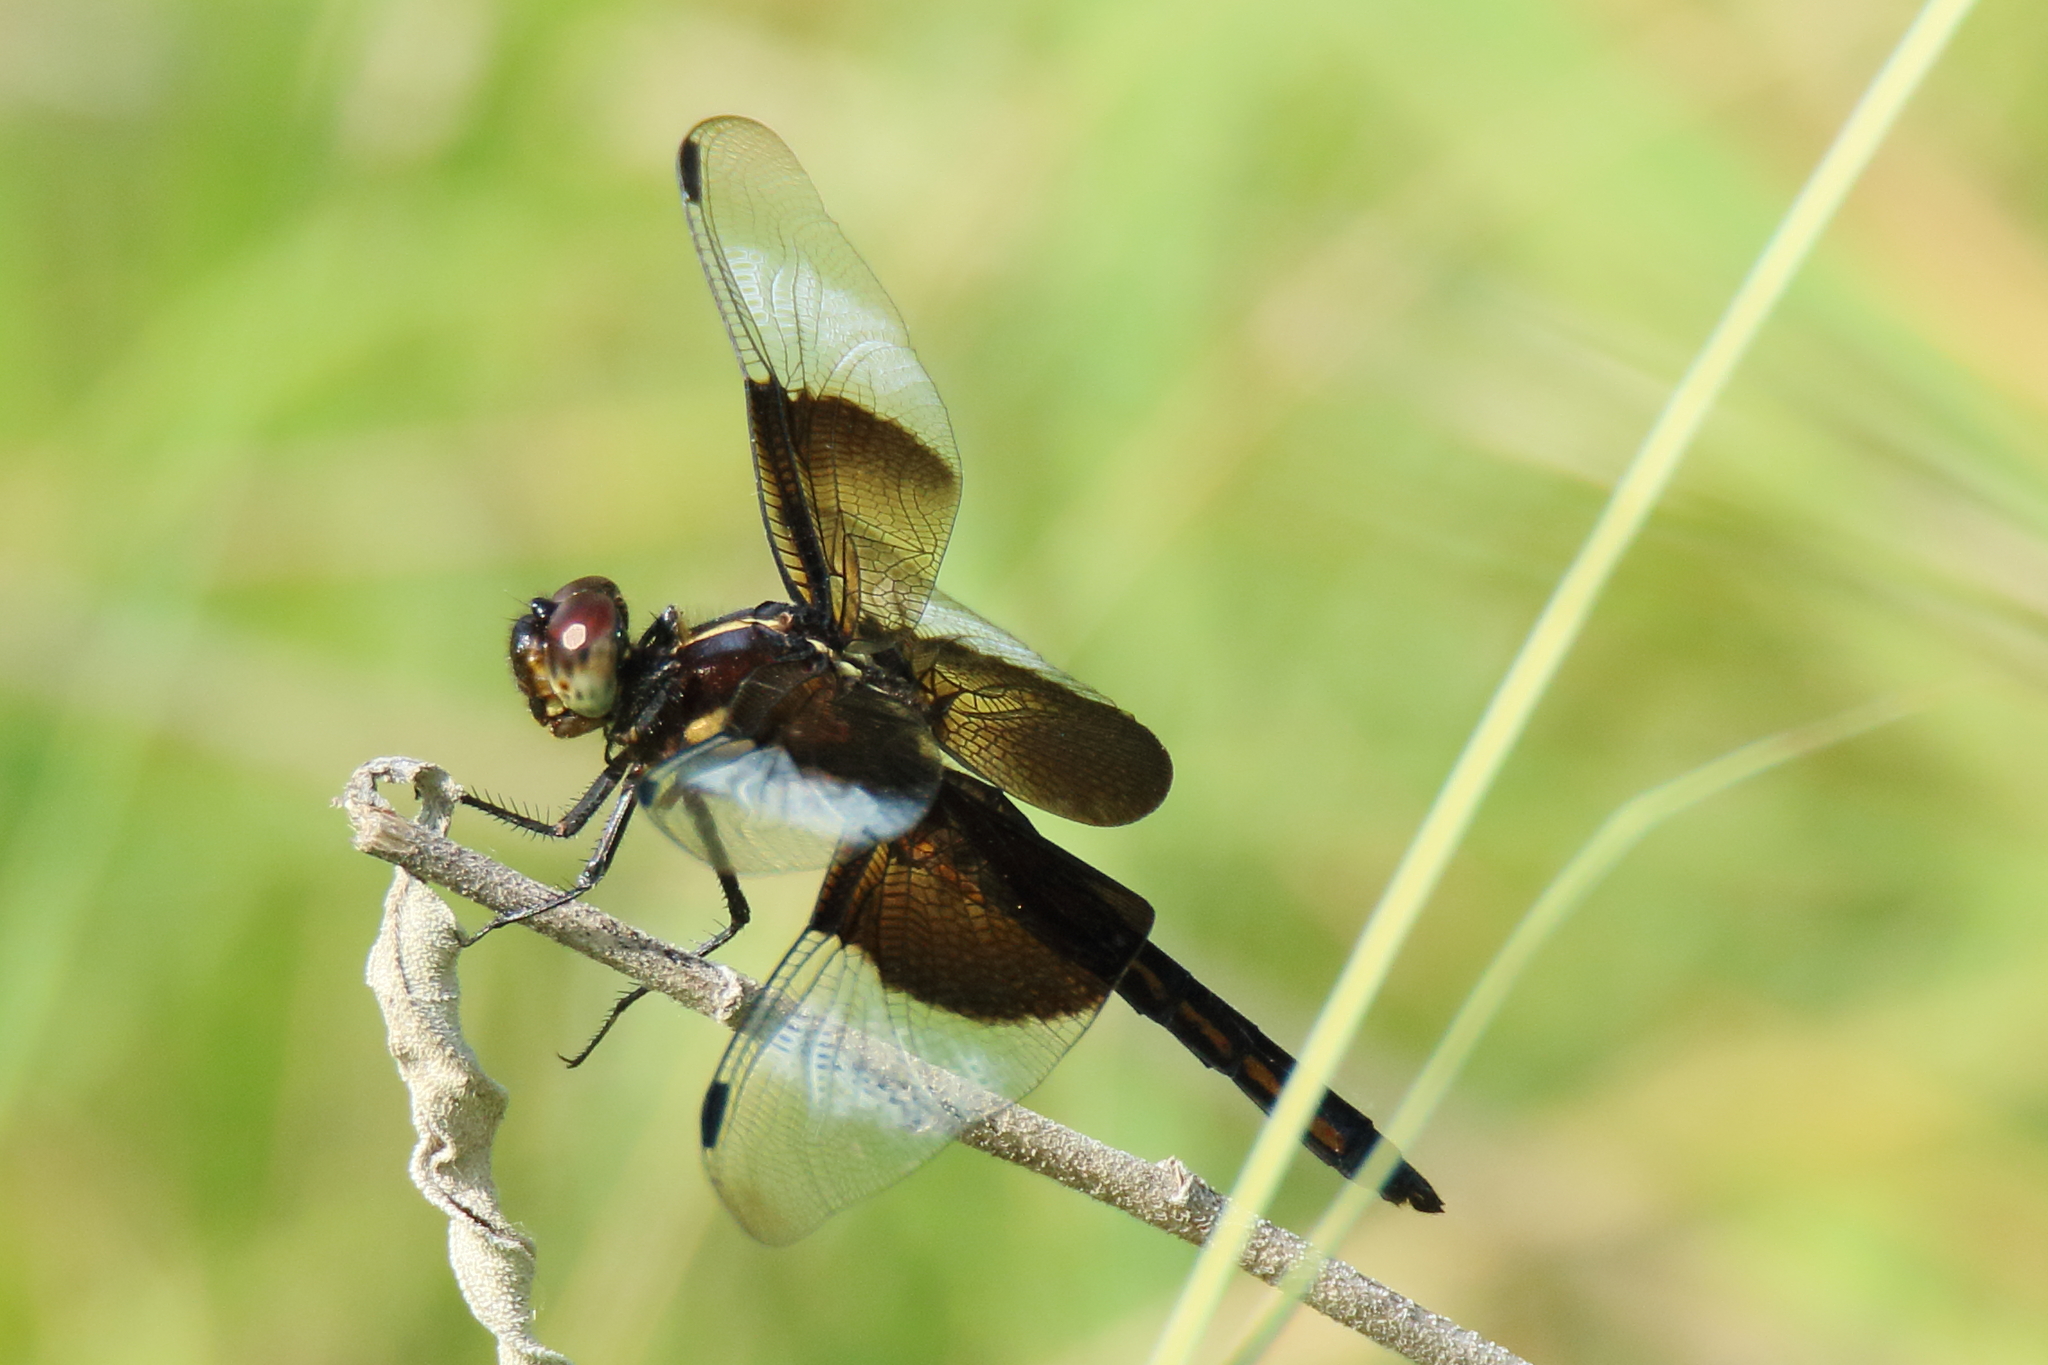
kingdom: Animalia
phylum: Arthropoda
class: Insecta
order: Odonata
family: Libellulidae
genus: Libellula
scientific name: Libellula luctuosa
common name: Widow skimmer
